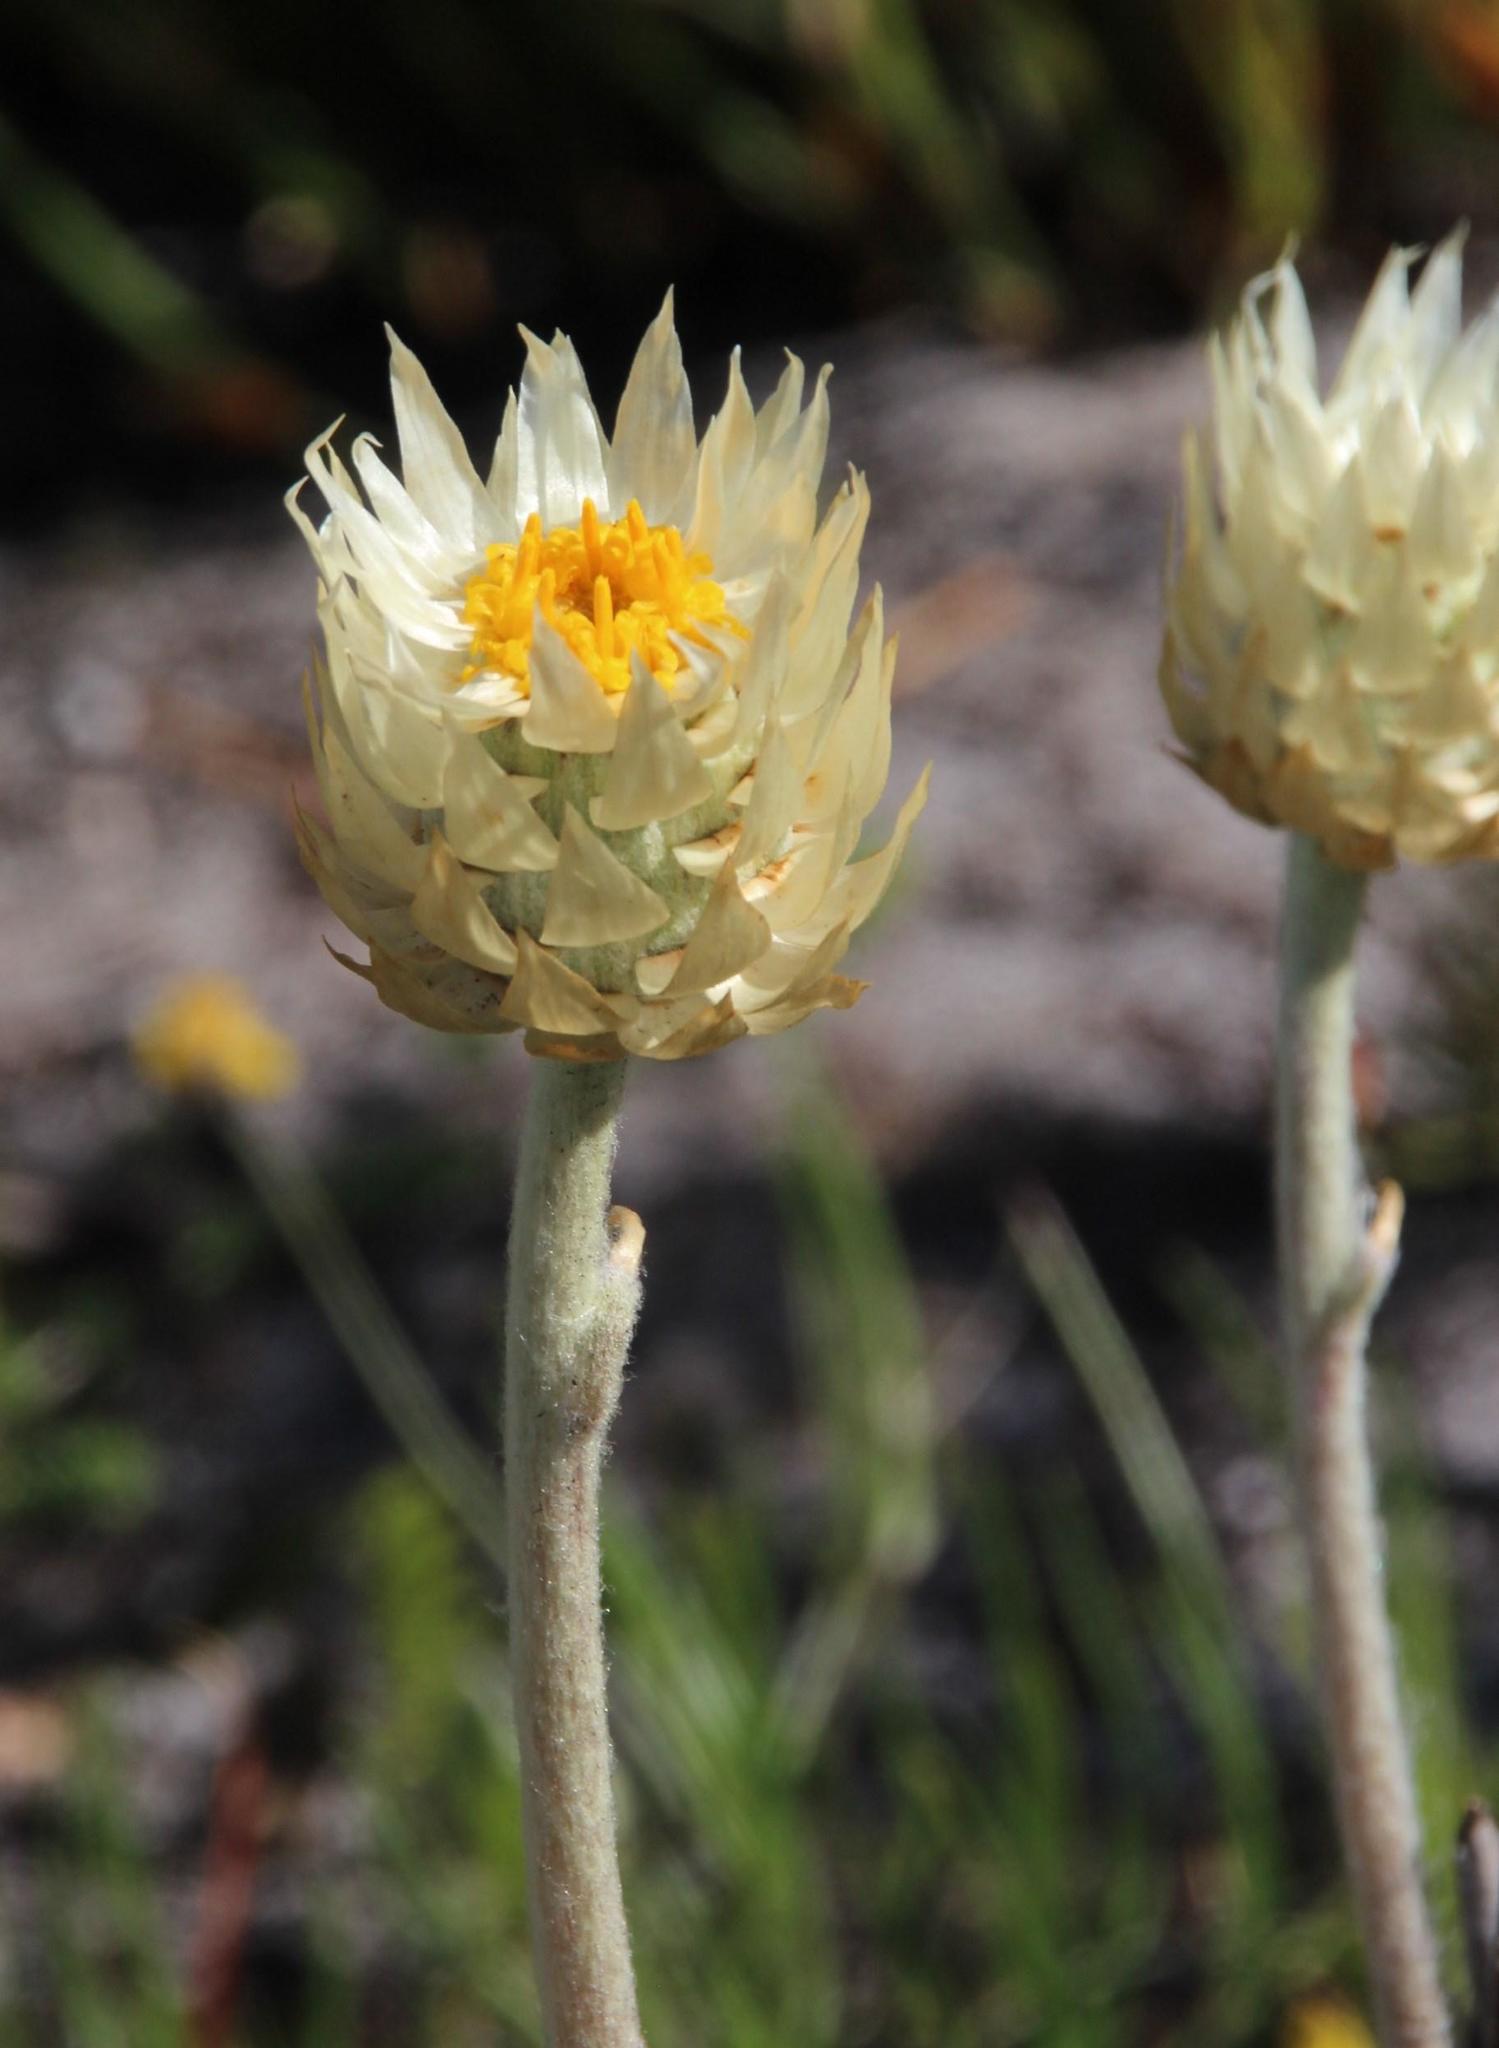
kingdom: Plantae
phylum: Tracheophyta
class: Magnoliopsida
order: Asterales
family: Asteraceae
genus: Syncarpha
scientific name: Syncarpha speciosissima
